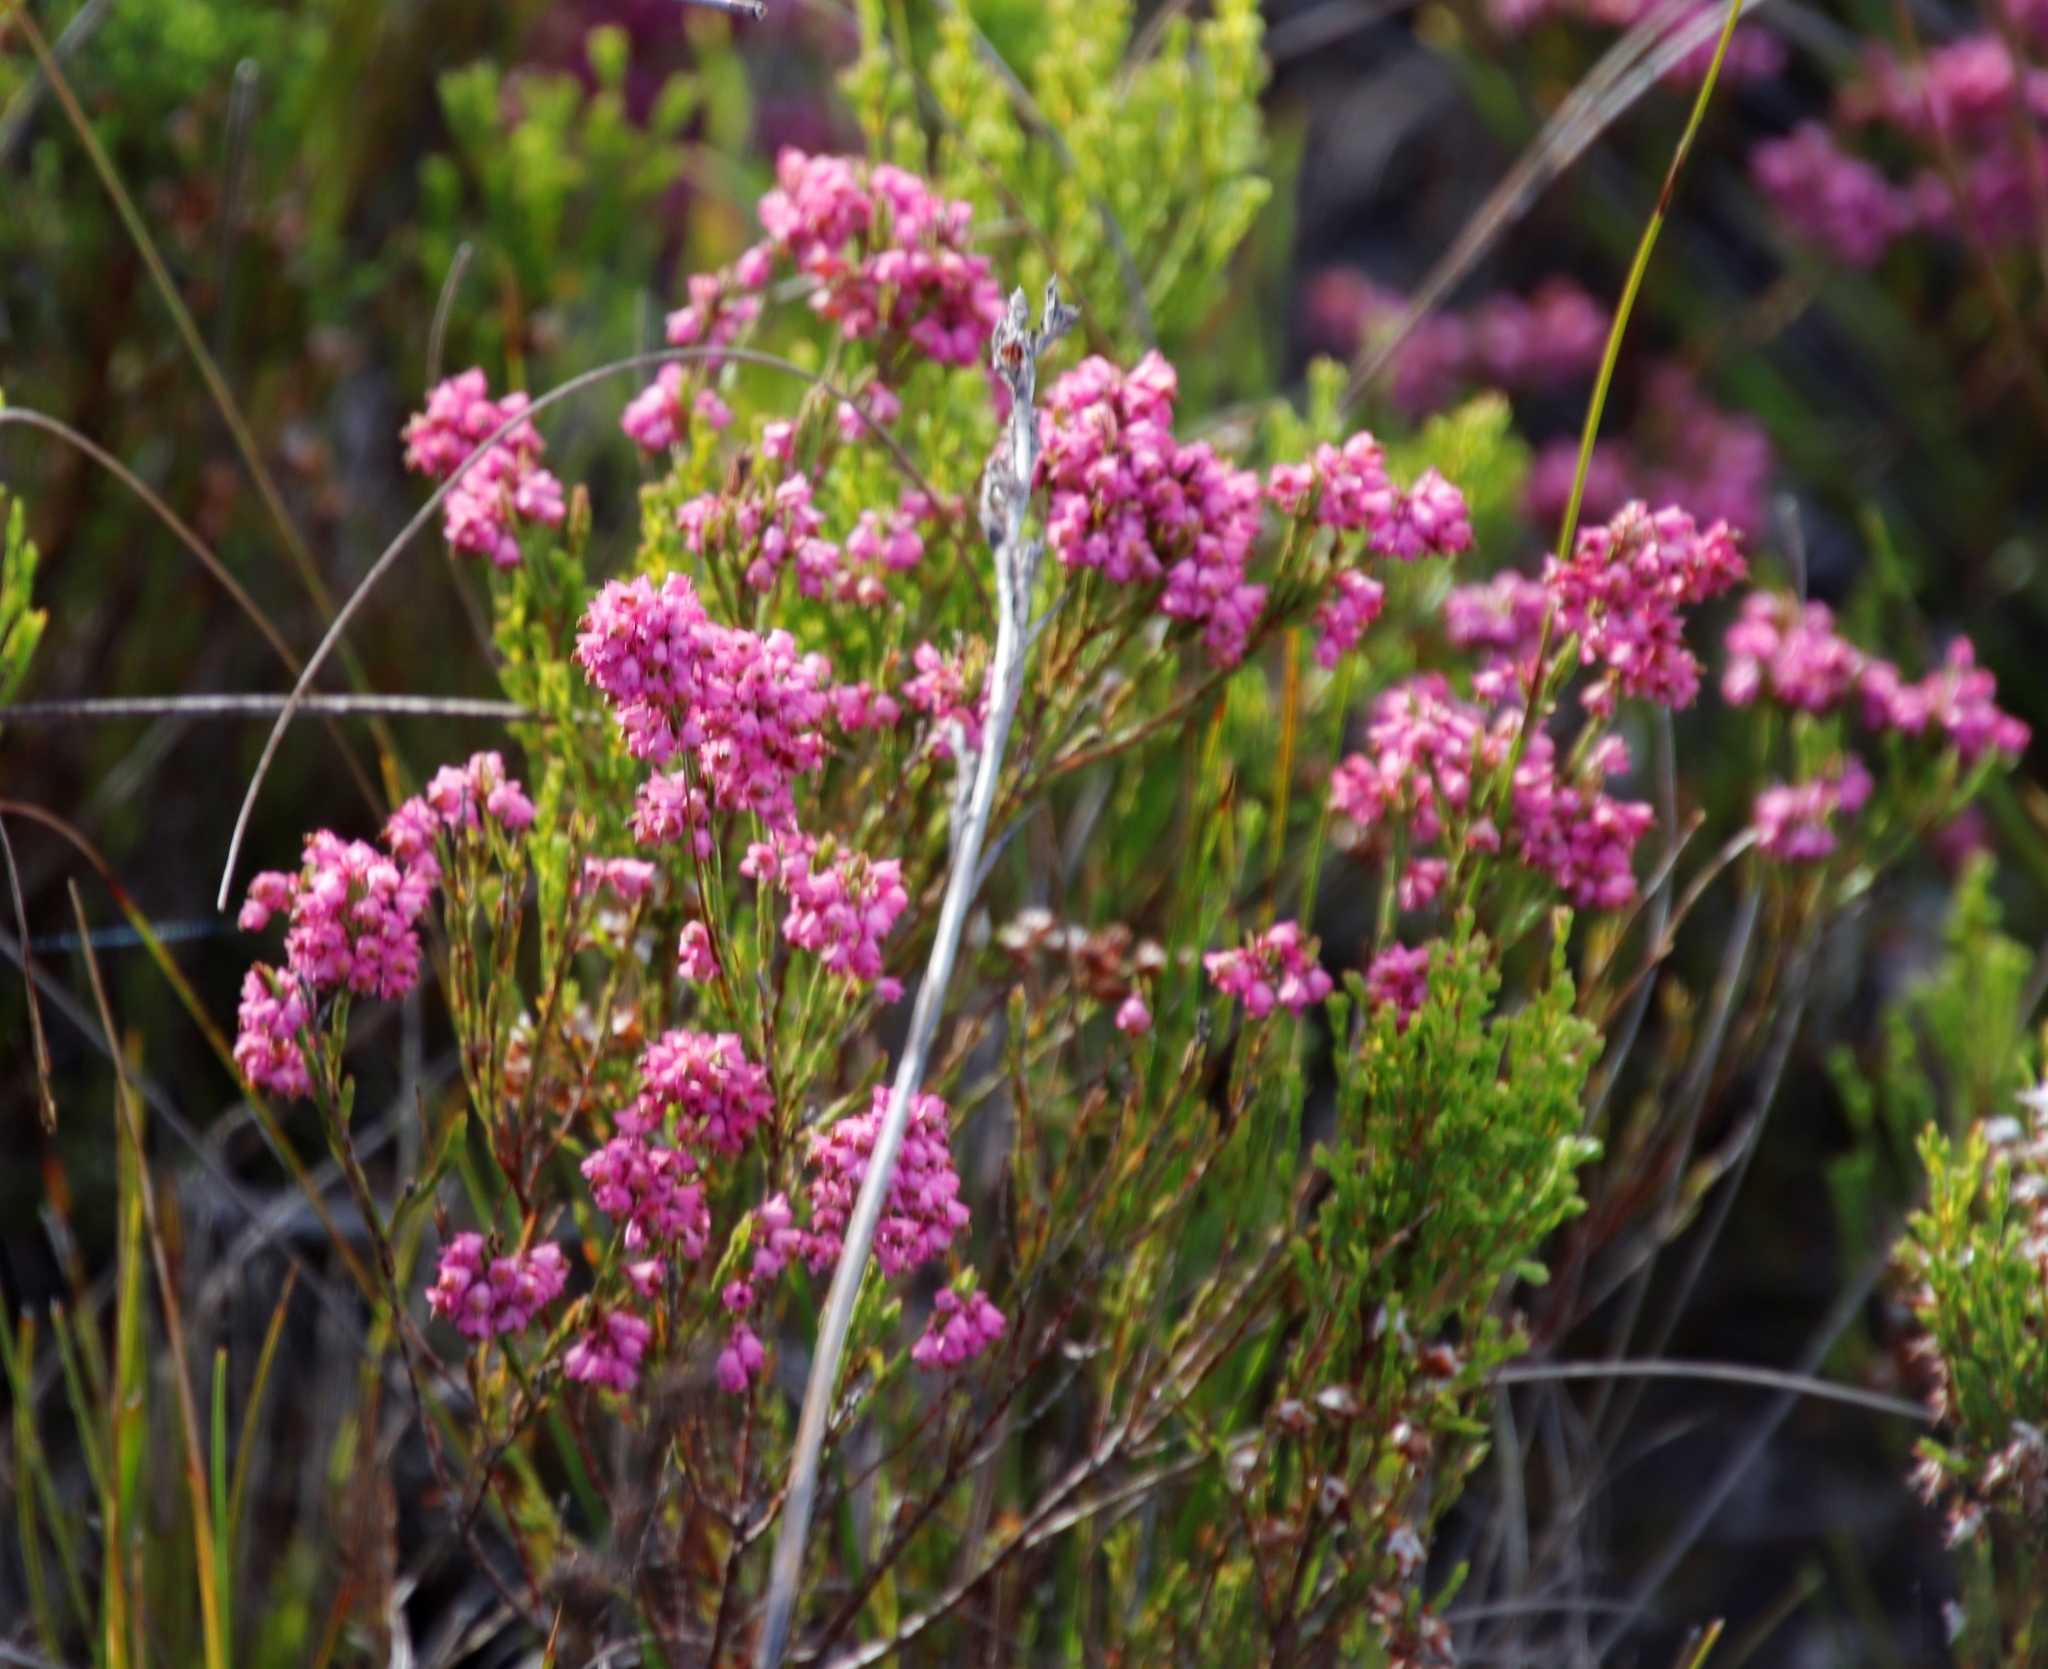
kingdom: Plantae
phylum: Tracheophyta
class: Magnoliopsida
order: Ericales
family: Ericaceae
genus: Erica
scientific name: Erica corifolia
